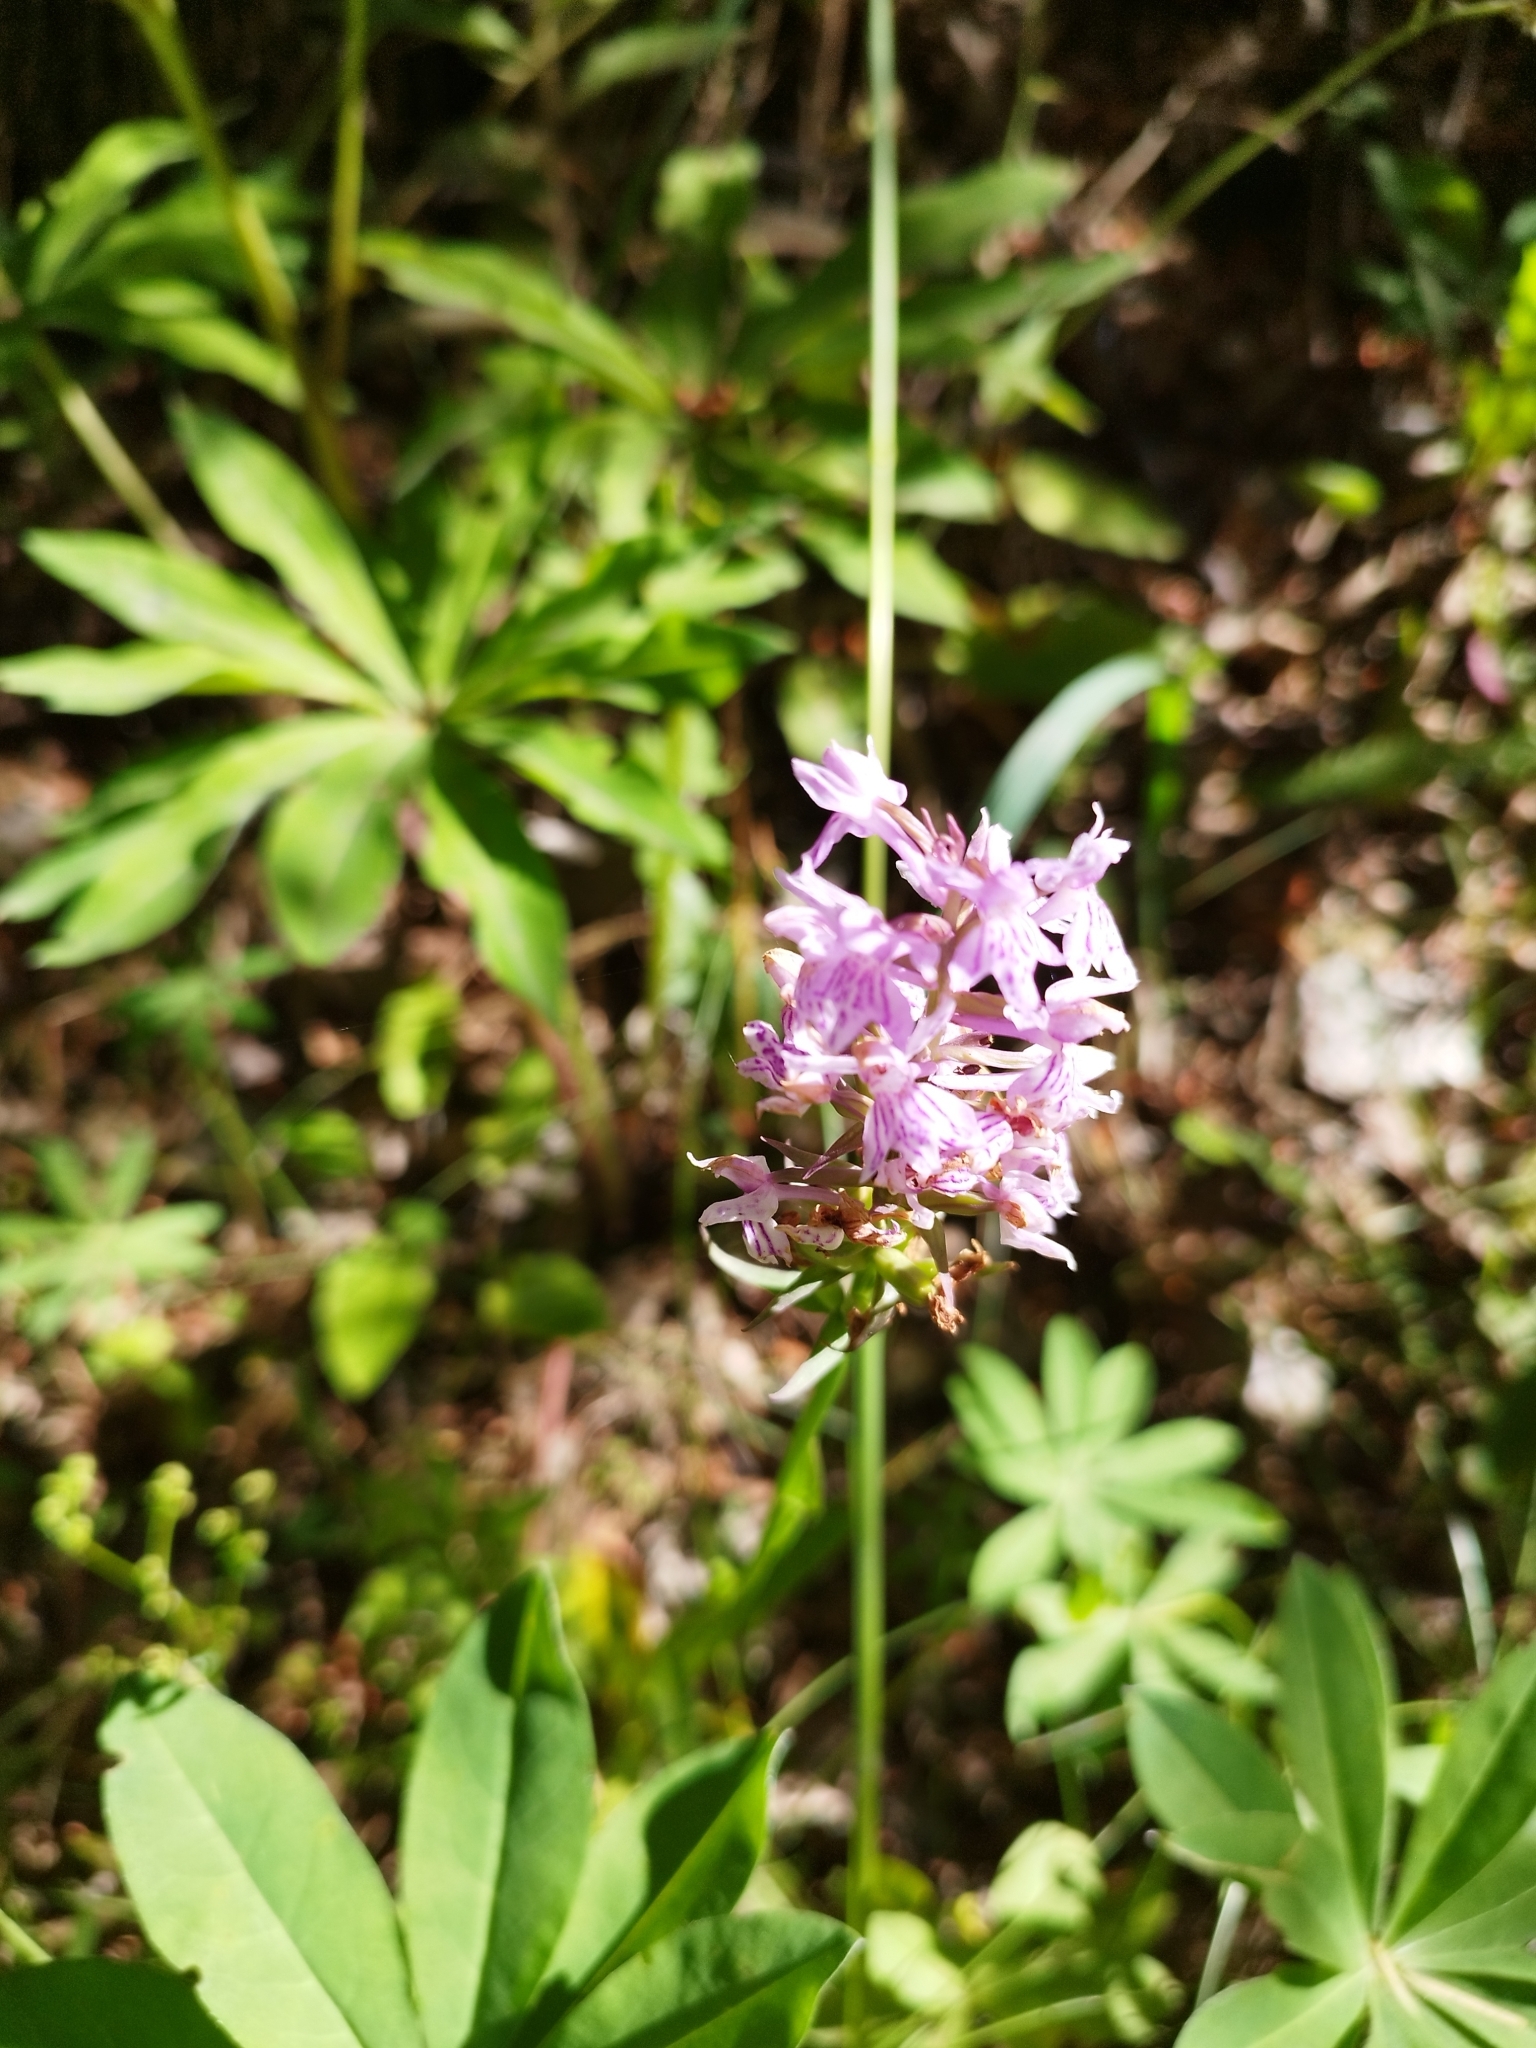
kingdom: Plantae
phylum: Tracheophyta
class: Liliopsida
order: Asparagales
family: Orchidaceae
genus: Dactylorhiza
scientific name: Dactylorhiza maculata
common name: Heath spotted-orchid
